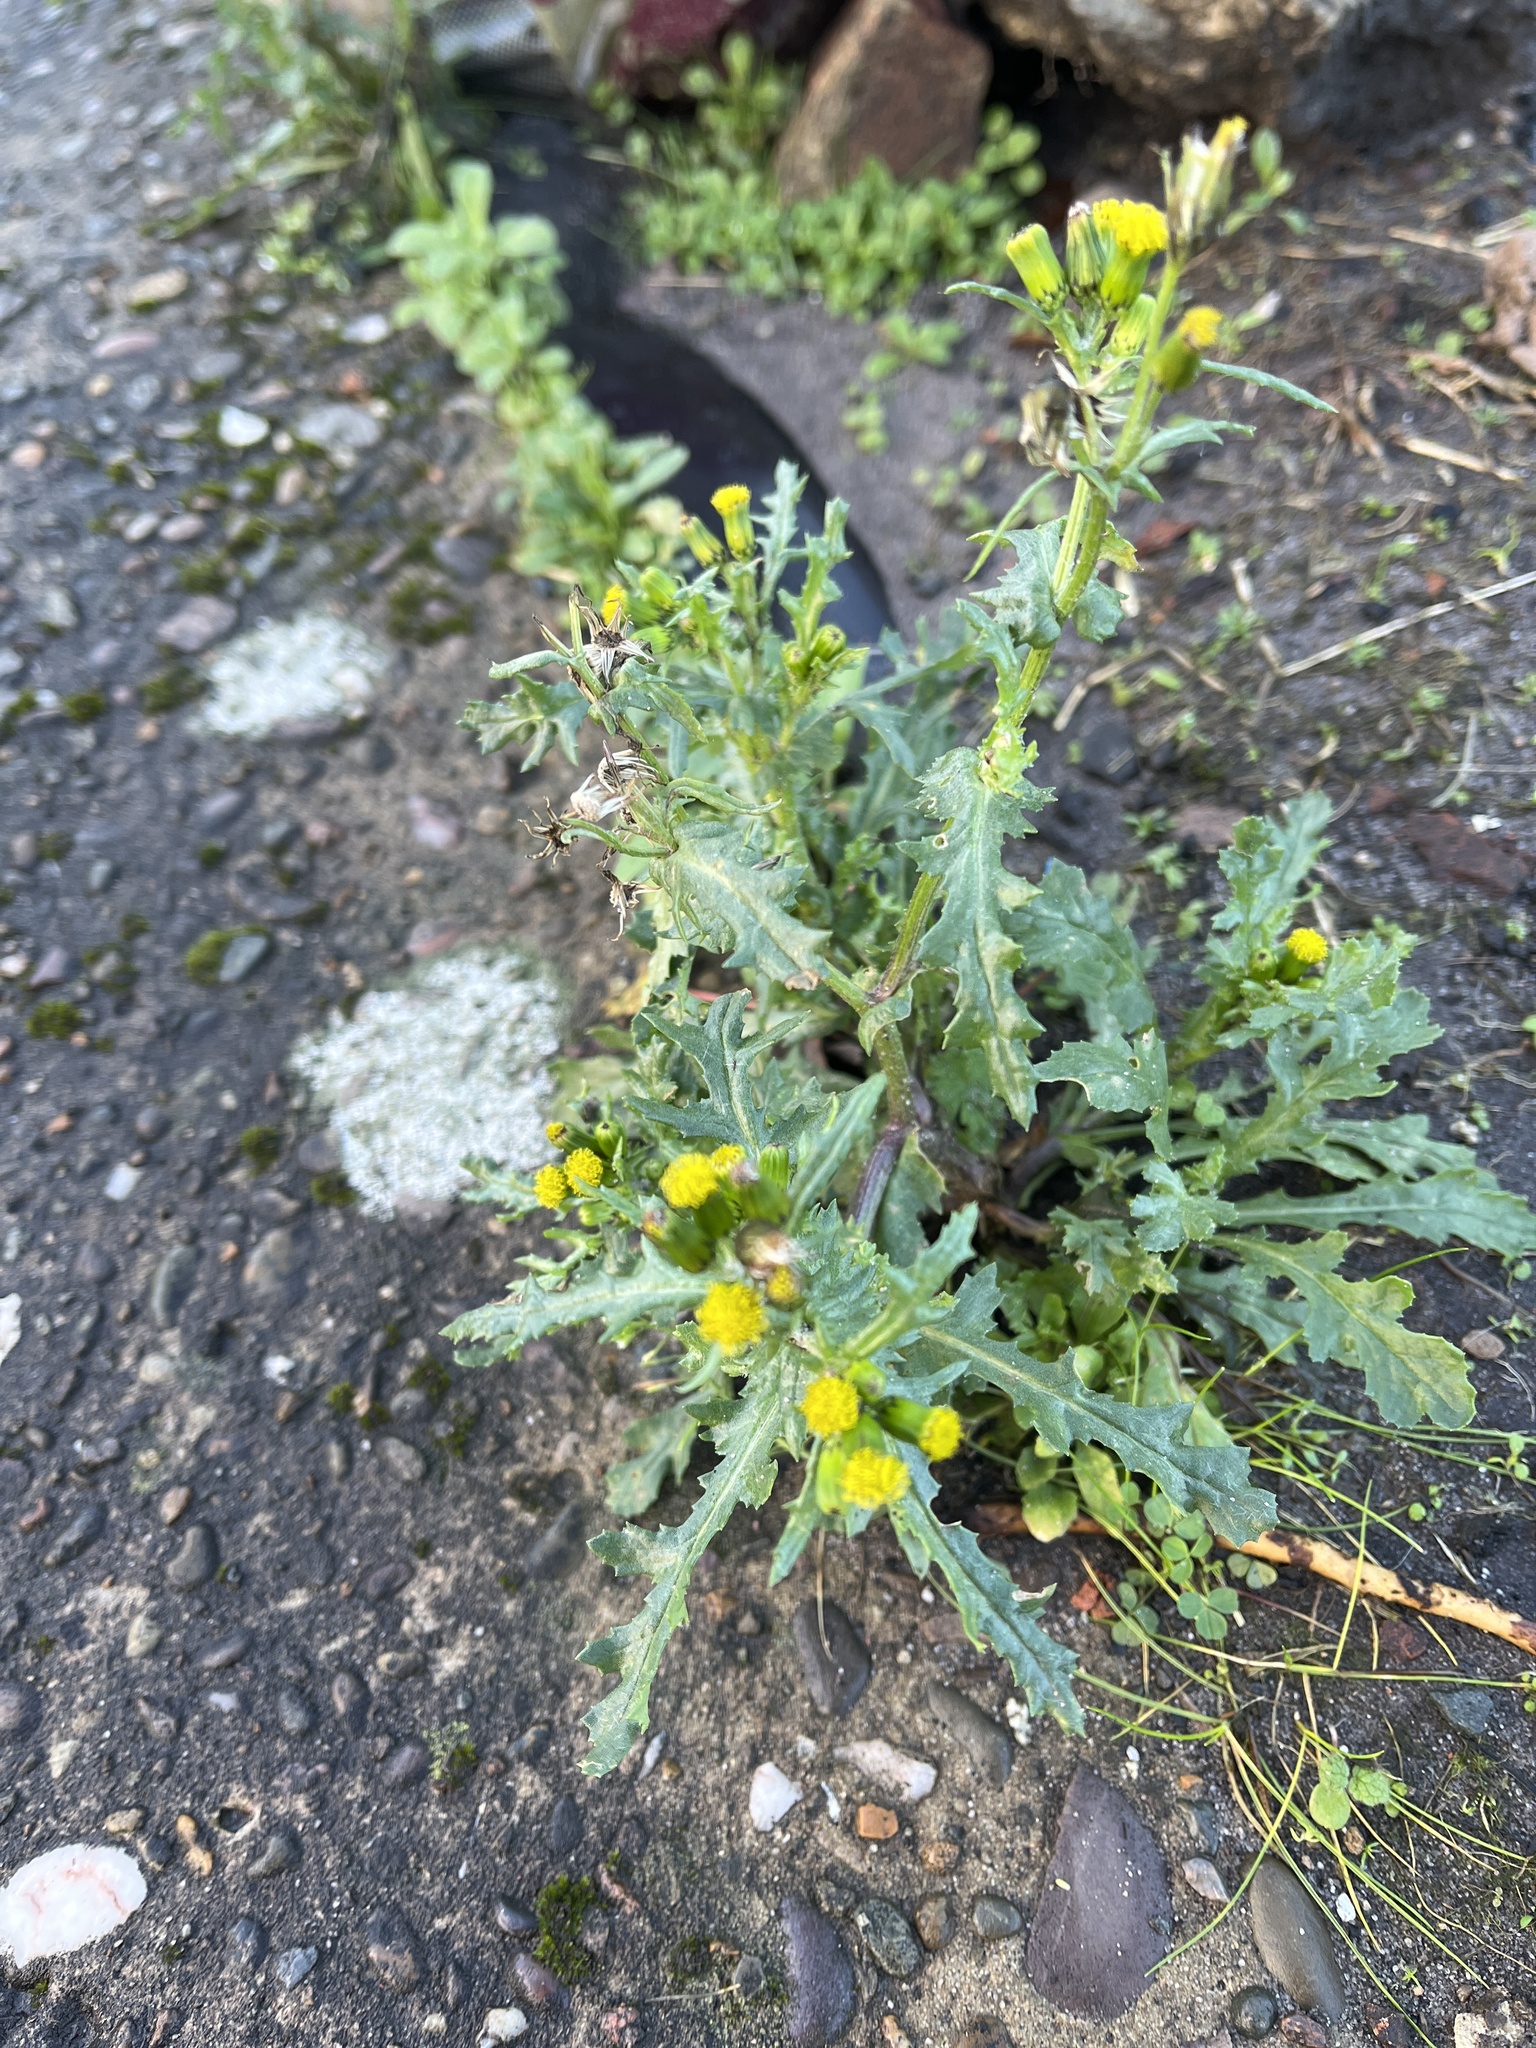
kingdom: Plantae
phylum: Tracheophyta
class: Magnoliopsida
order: Asterales
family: Asteraceae
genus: Senecio
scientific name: Senecio vulgaris
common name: Old-man-in-the-spring
